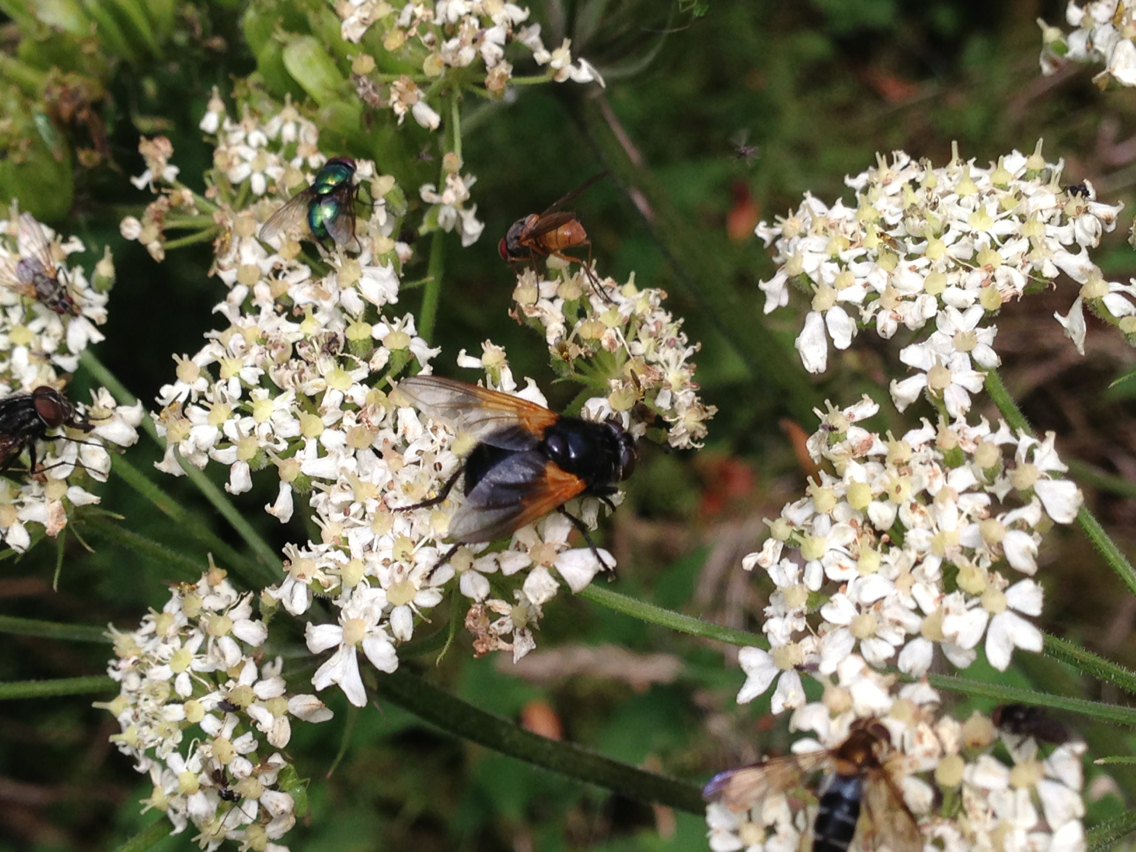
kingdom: Animalia
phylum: Arthropoda
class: Insecta
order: Diptera
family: Muscidae
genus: Mesembrina
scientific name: Mesembrina meridiana
